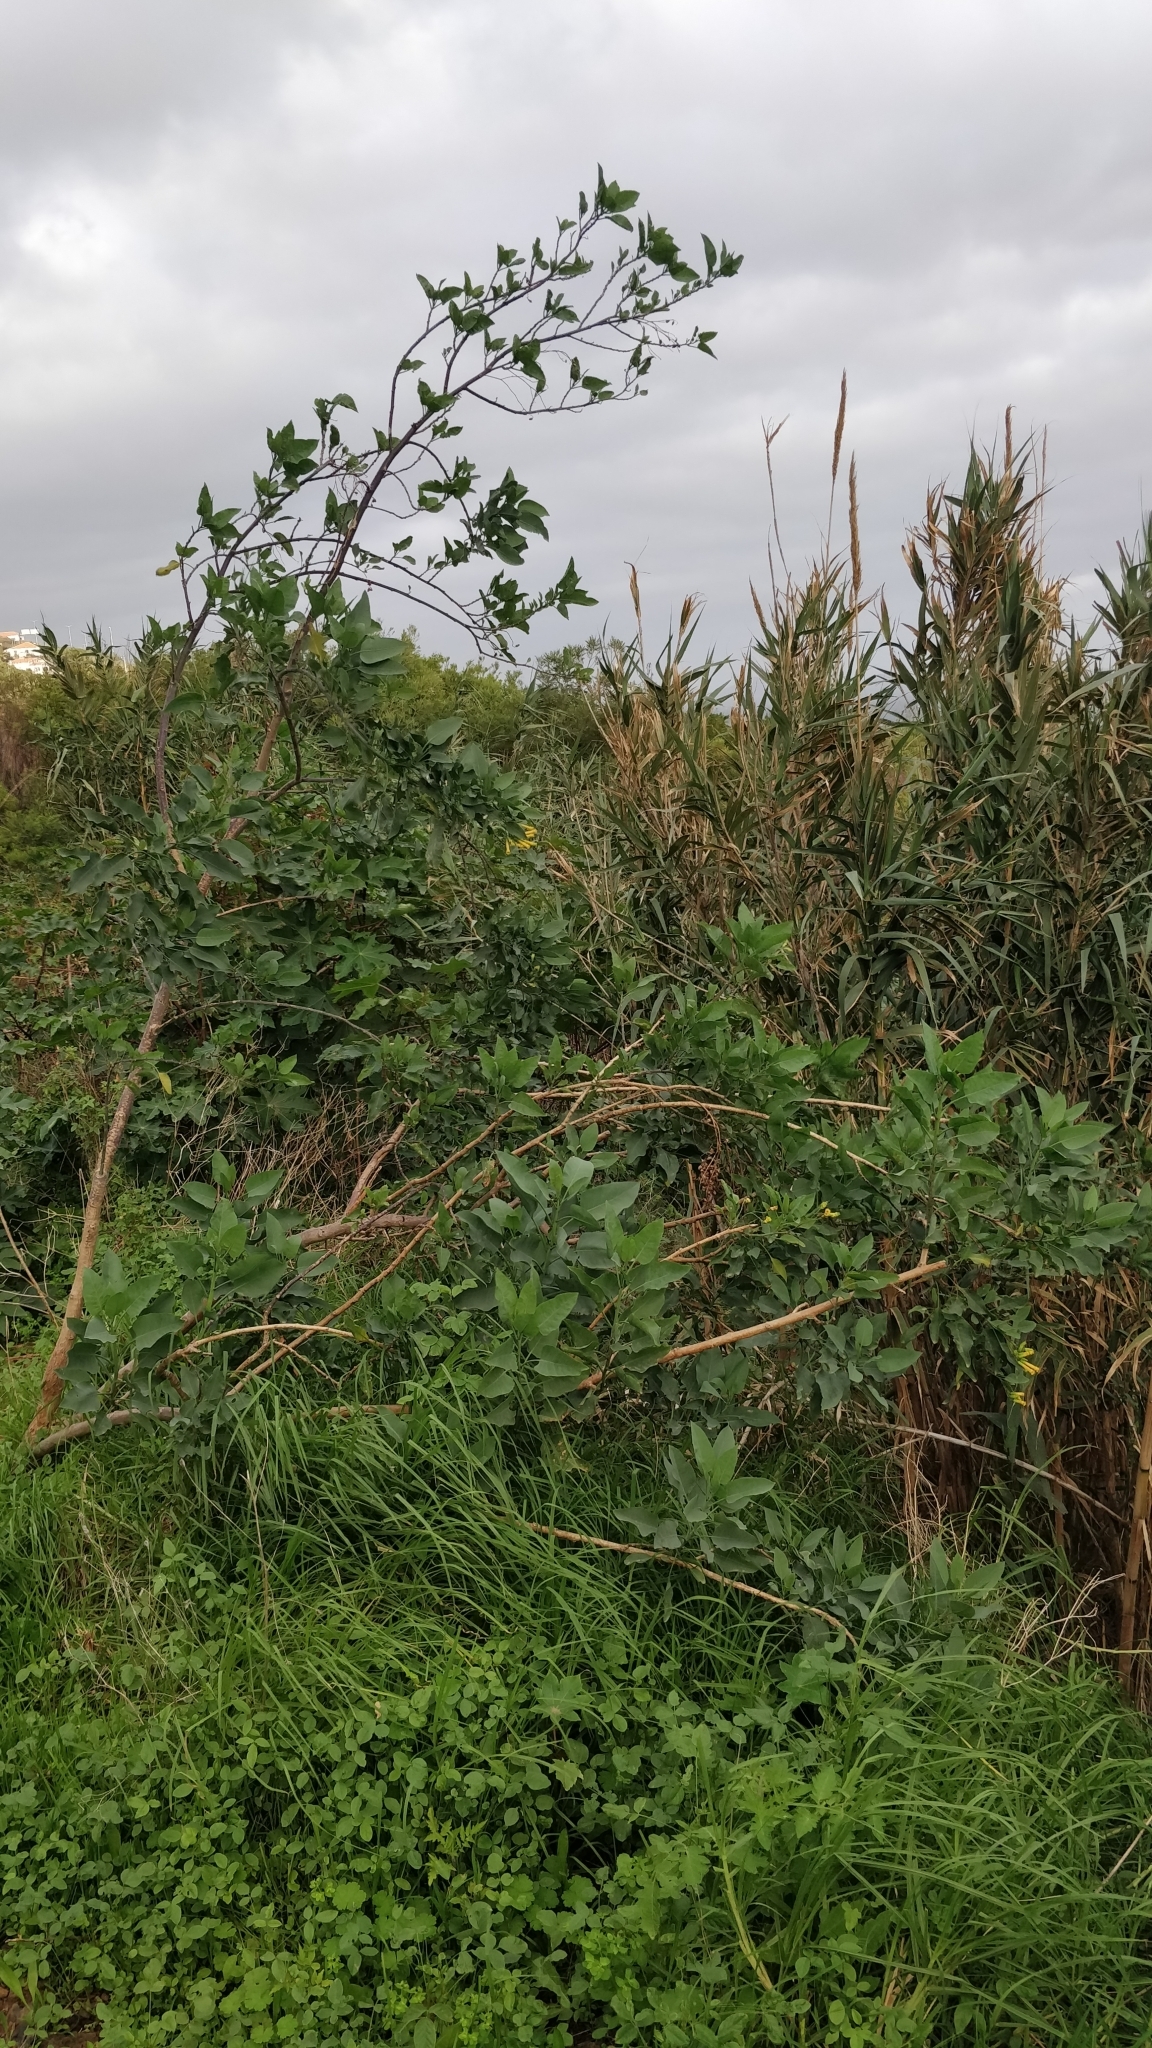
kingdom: Plantae
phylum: Tracheophyta
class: Magnoliopsida
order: Solanales
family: Solanaceae
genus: Nicotiana
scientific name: Nicotiana glauca
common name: Tree tobacco
